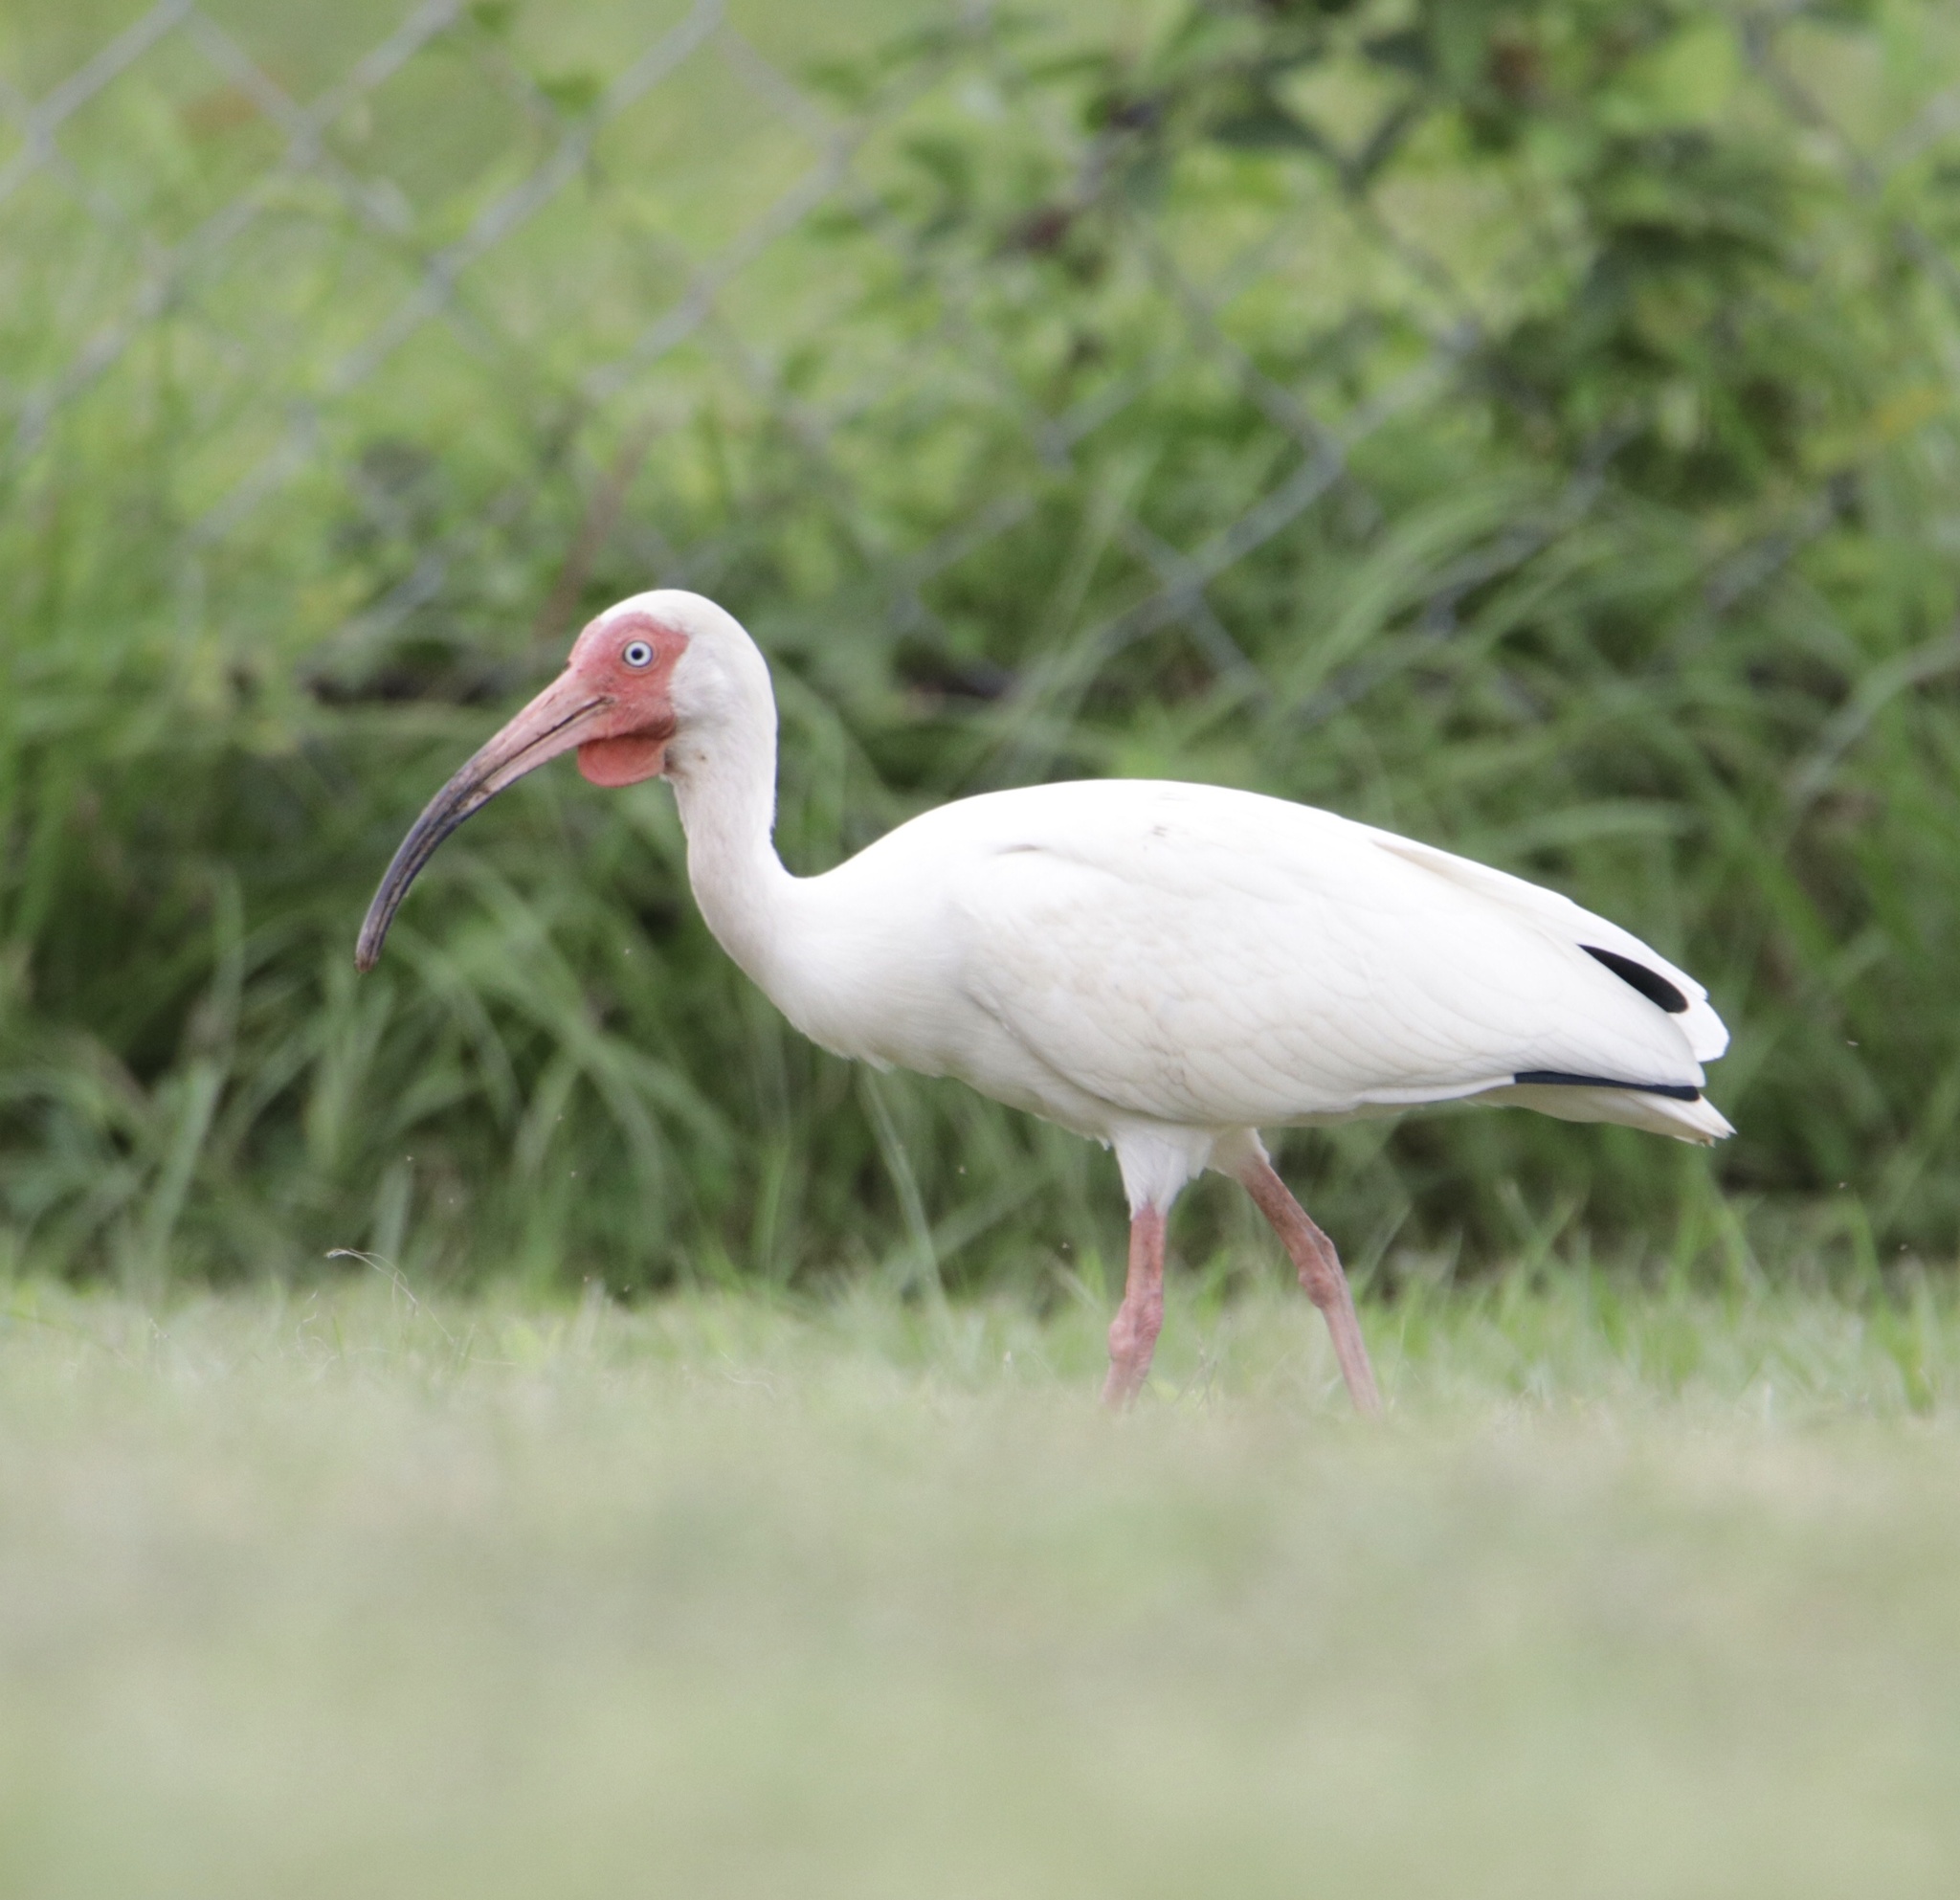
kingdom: Animalia
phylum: Chordata
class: Aves
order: Pelecaniformes
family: Threskiornithidae
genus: Eudocimus
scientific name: Eudocimus albus
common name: White ibis
